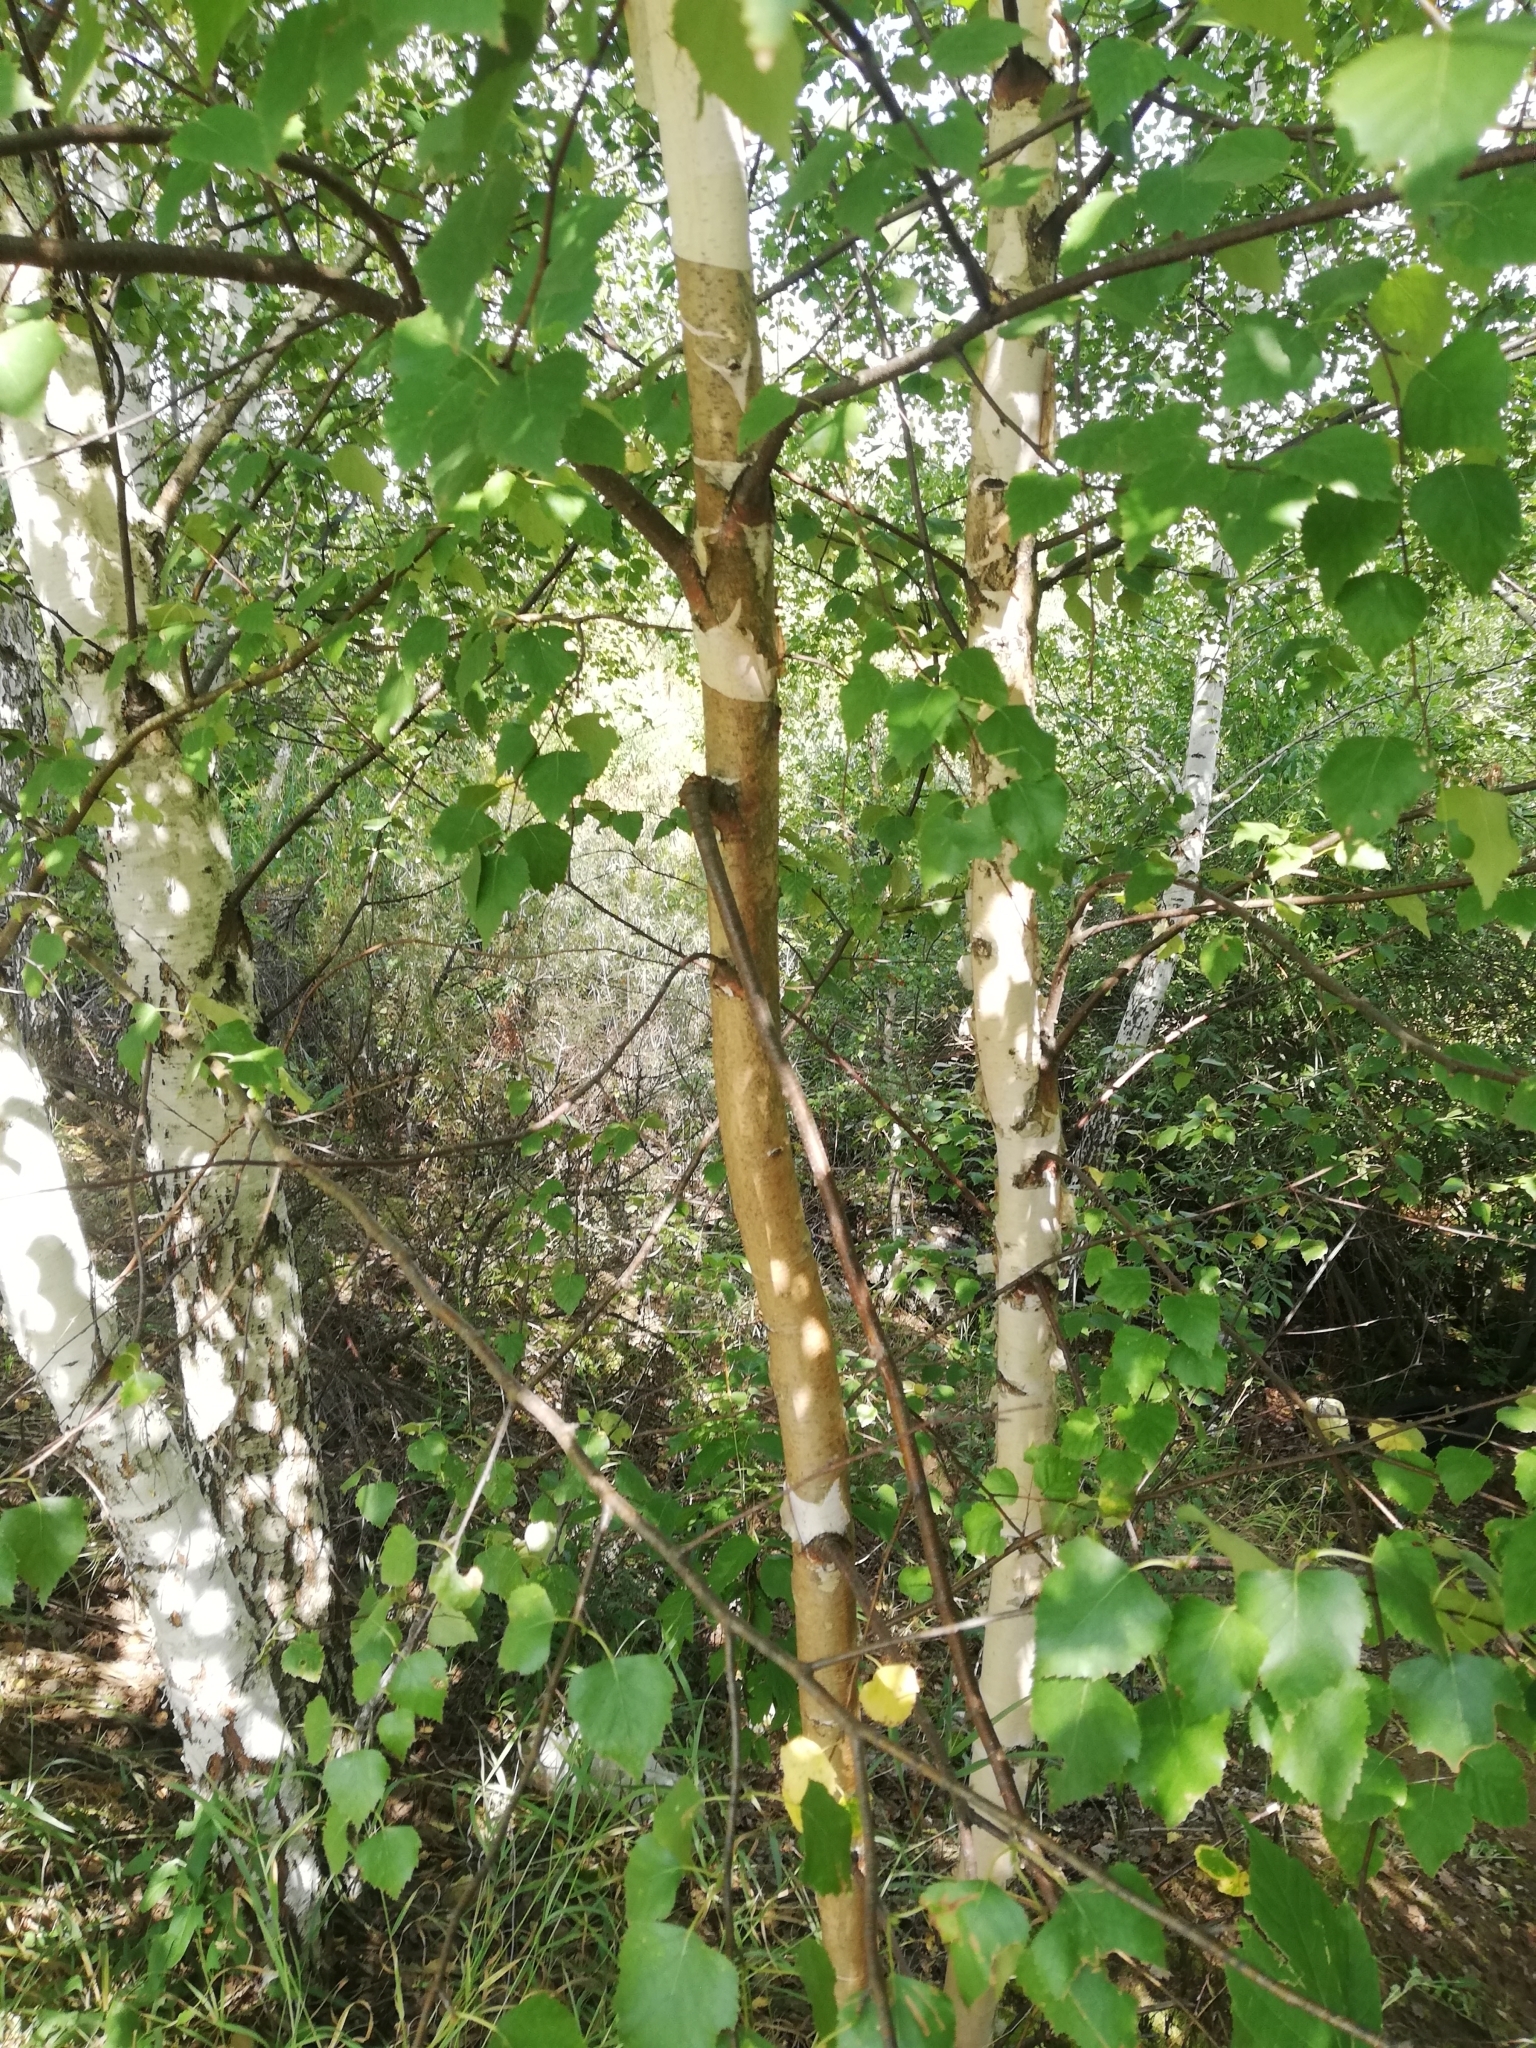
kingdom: Plantae
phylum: Tracheophyta
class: Magnoliopsida
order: Fagales
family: Betulaceae
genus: Betula
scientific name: Betula pendula
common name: Silver birch
